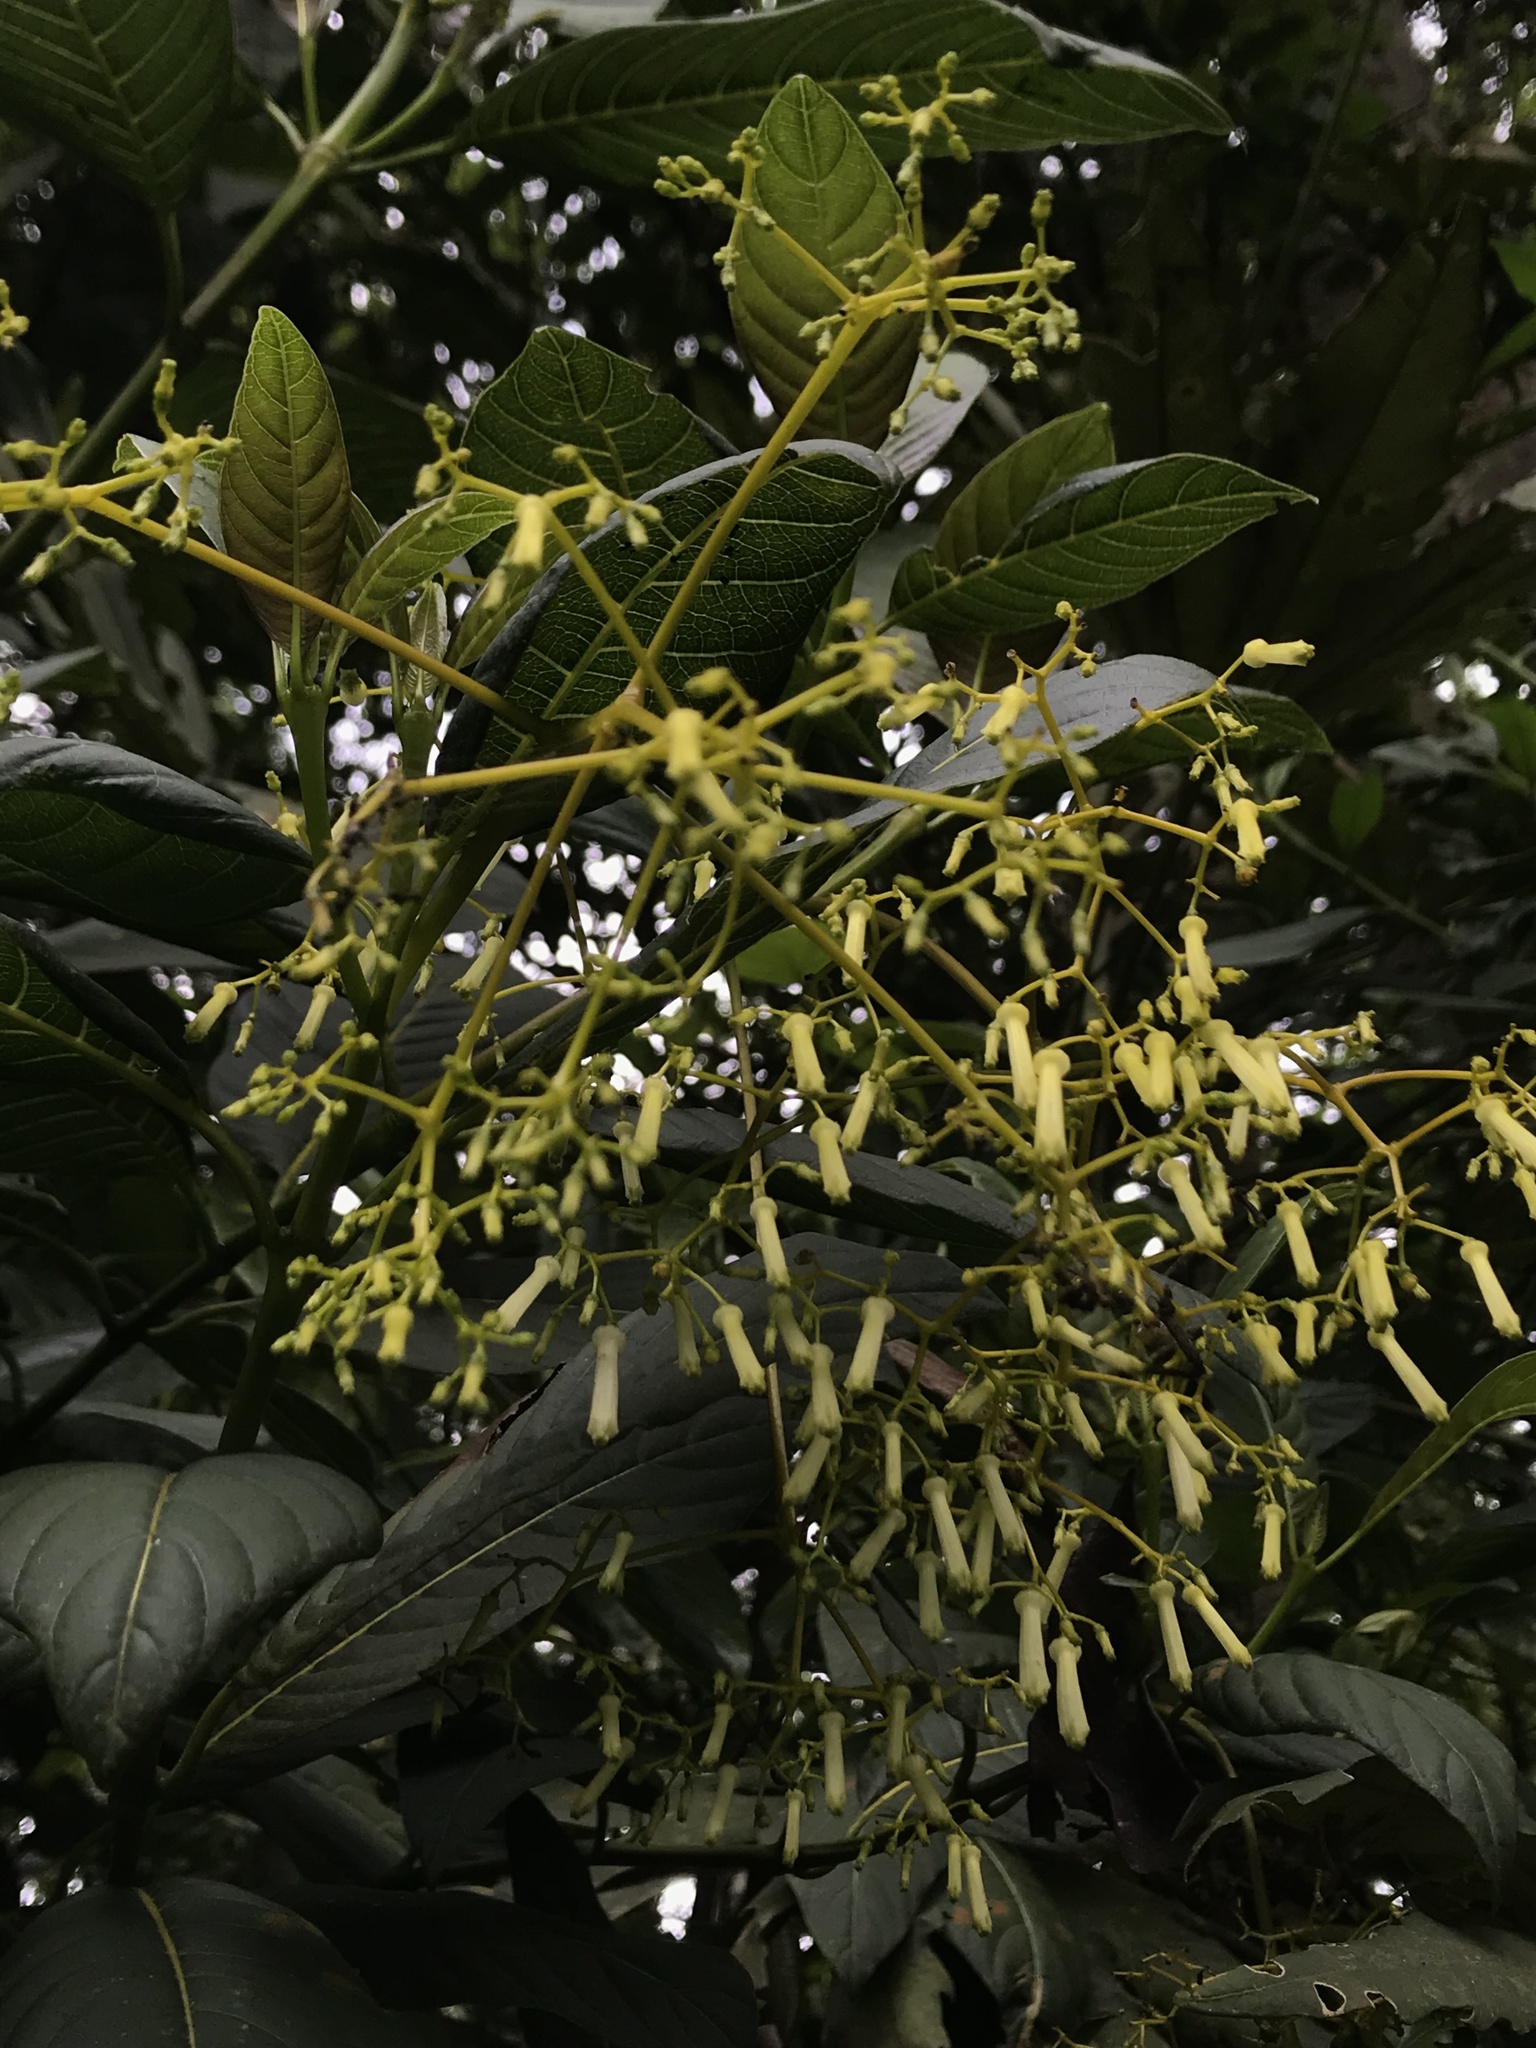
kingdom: Plantae
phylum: Tracheophyta
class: Magnoliopsida
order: Gentianales
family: Rubiaceae
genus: Palicourea
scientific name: Palicourea lineariflora
